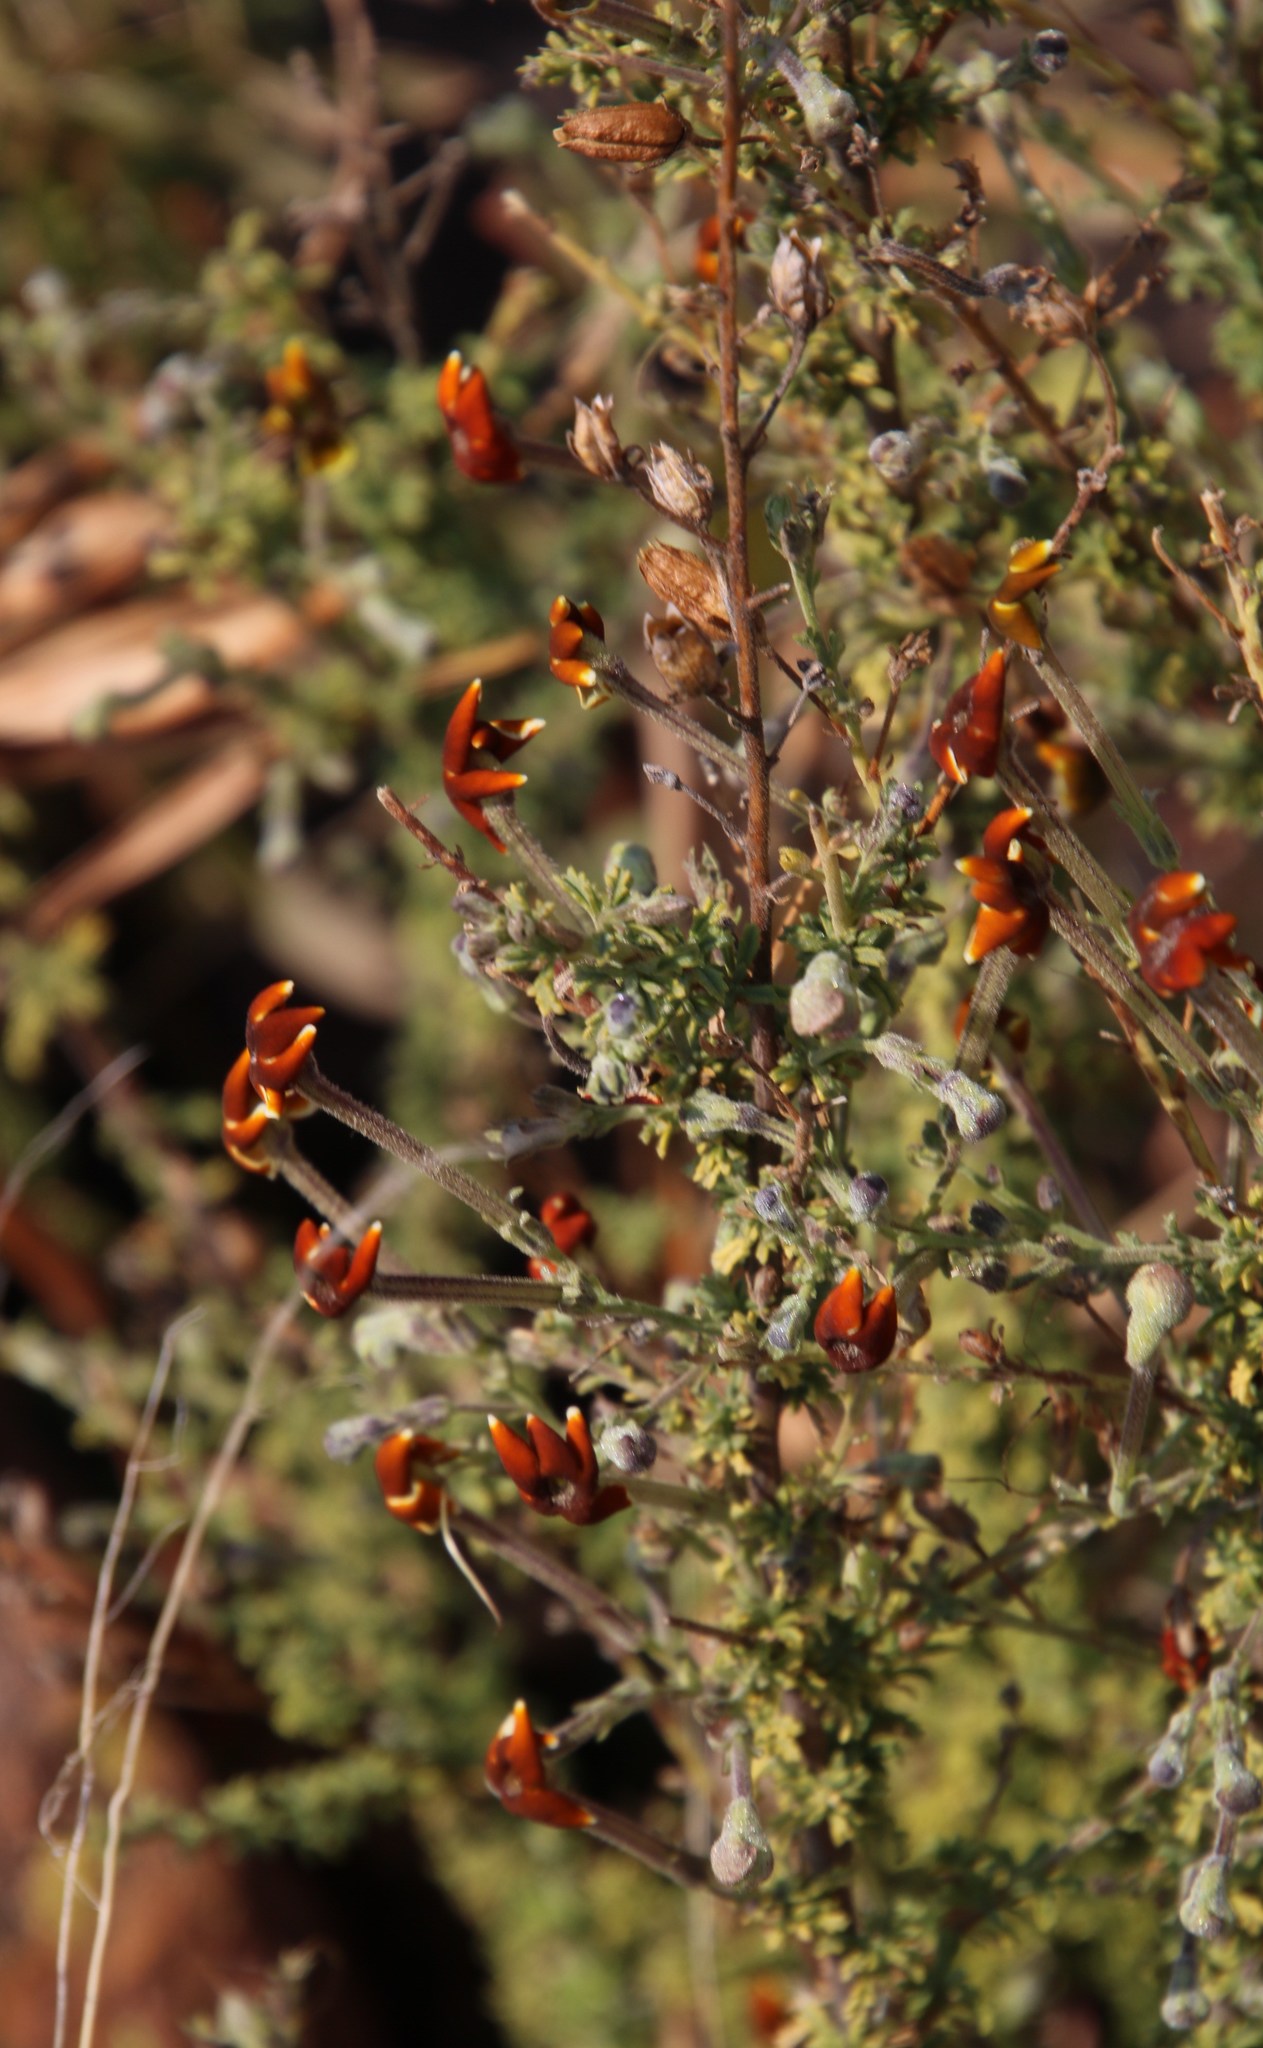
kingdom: Plantae
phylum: Tracheophyta
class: Magnoliopsida
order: Lamiales
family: Scrophulariaceae
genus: Jamesbrittenia
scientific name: Jamesbrittenia burkeana
